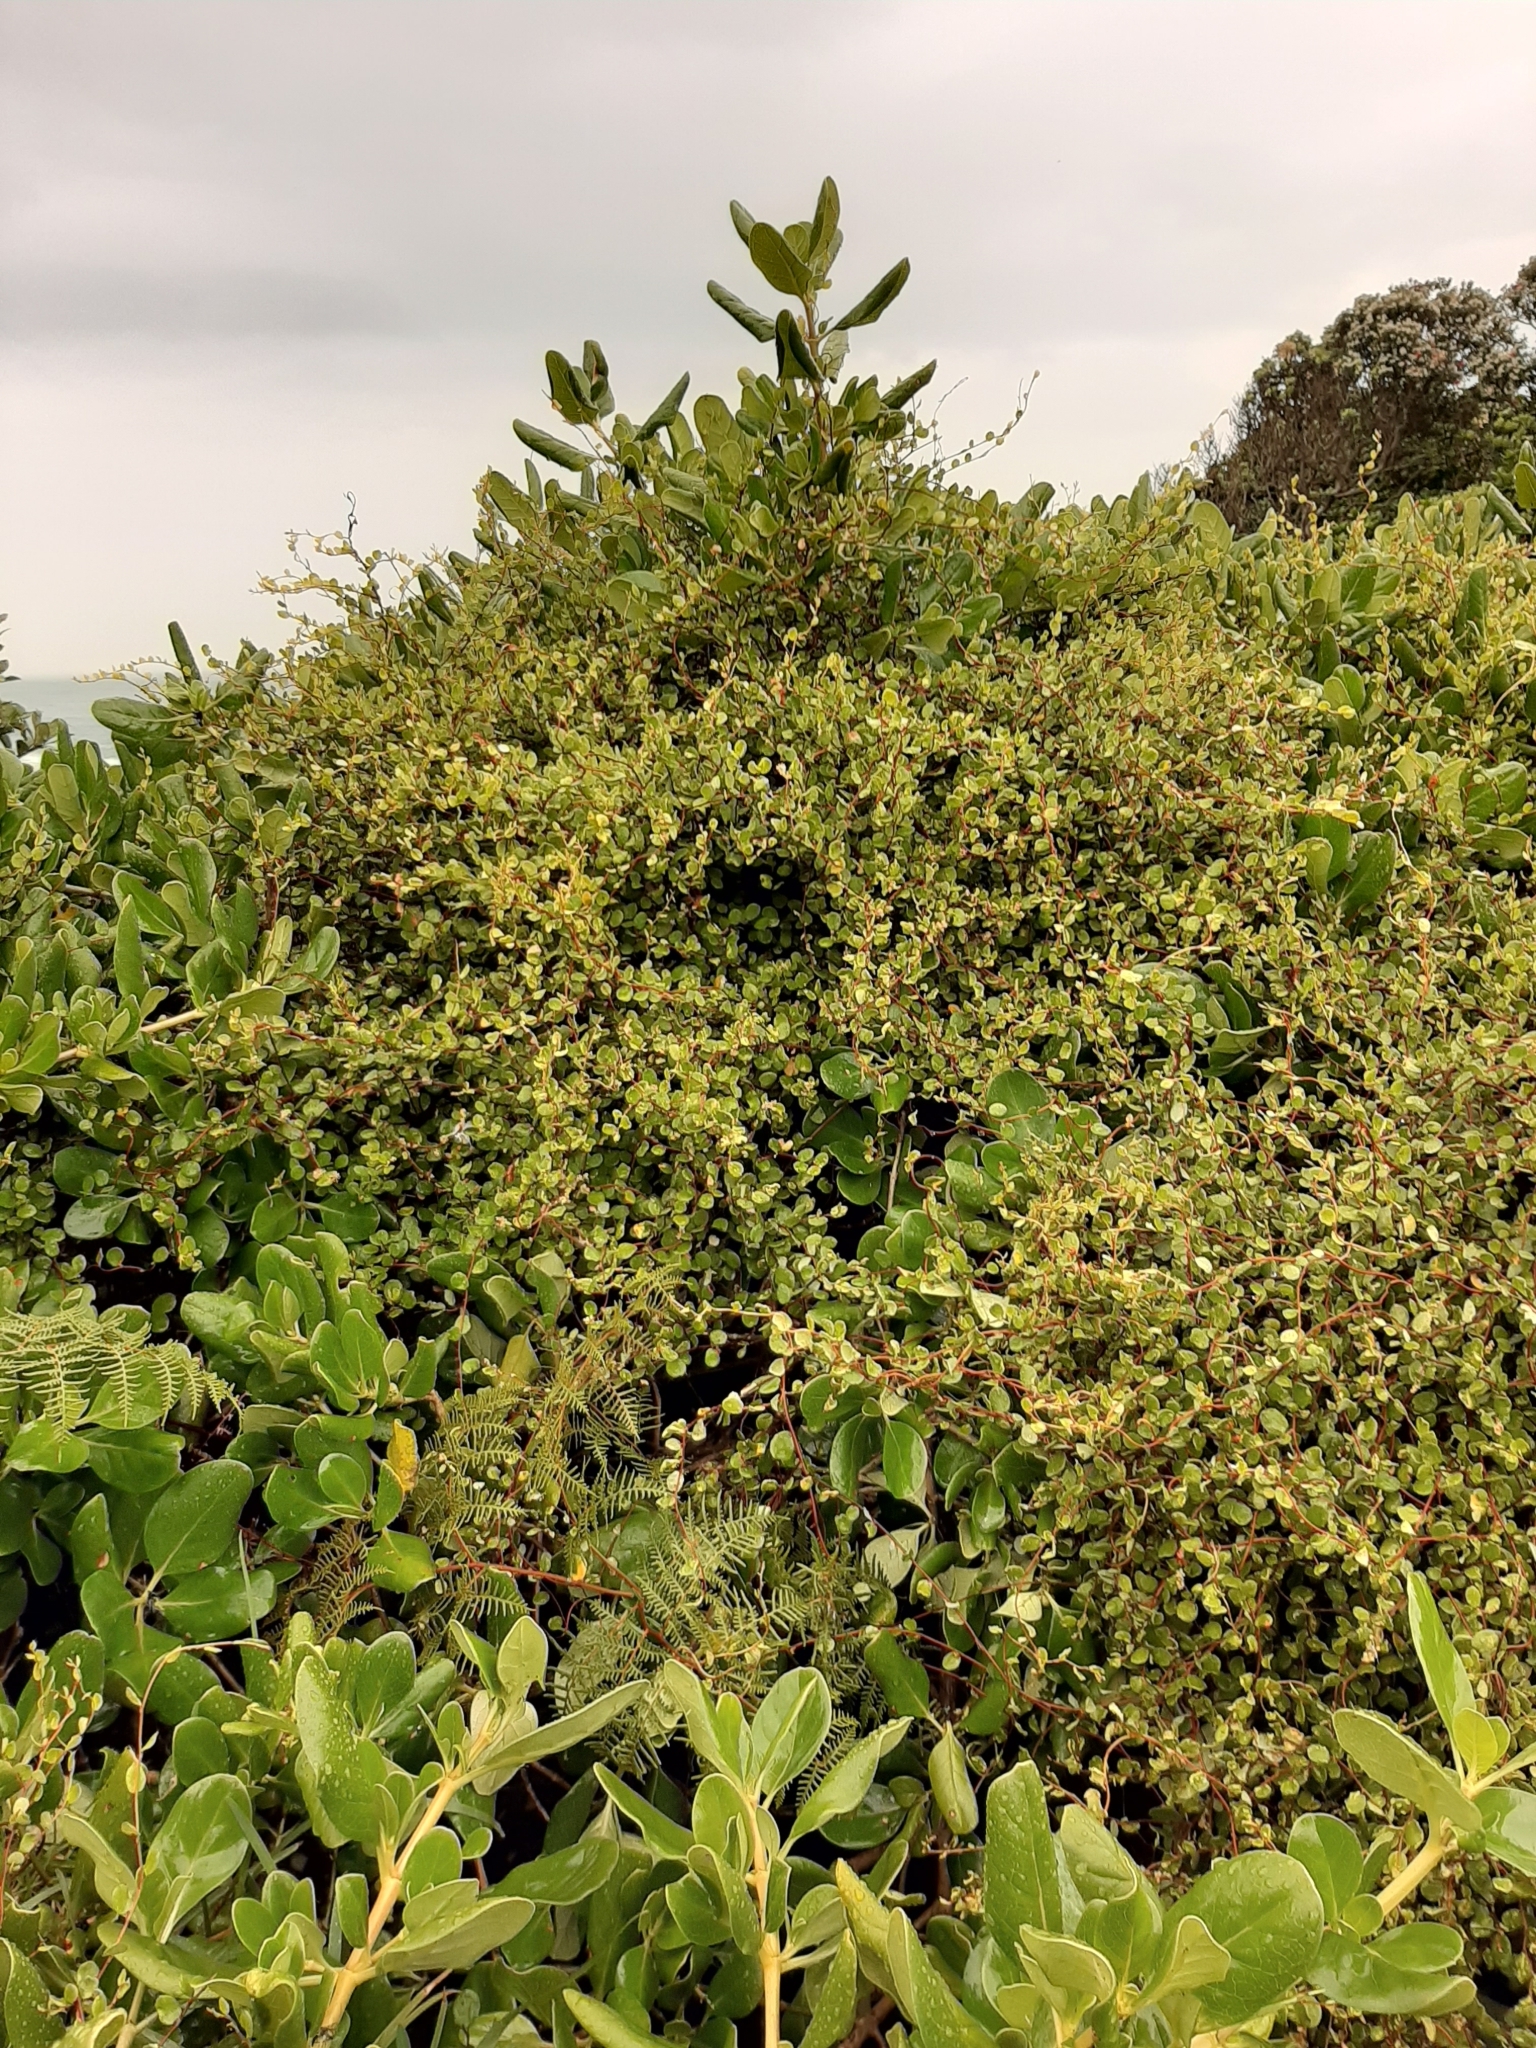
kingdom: Plantae
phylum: Tracheophyta
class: Magnoliopsida
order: Caryophyllales
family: Polygonaceae
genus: Muehlenbeckia
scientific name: Muehlenbeckia complexa
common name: Wireplant
